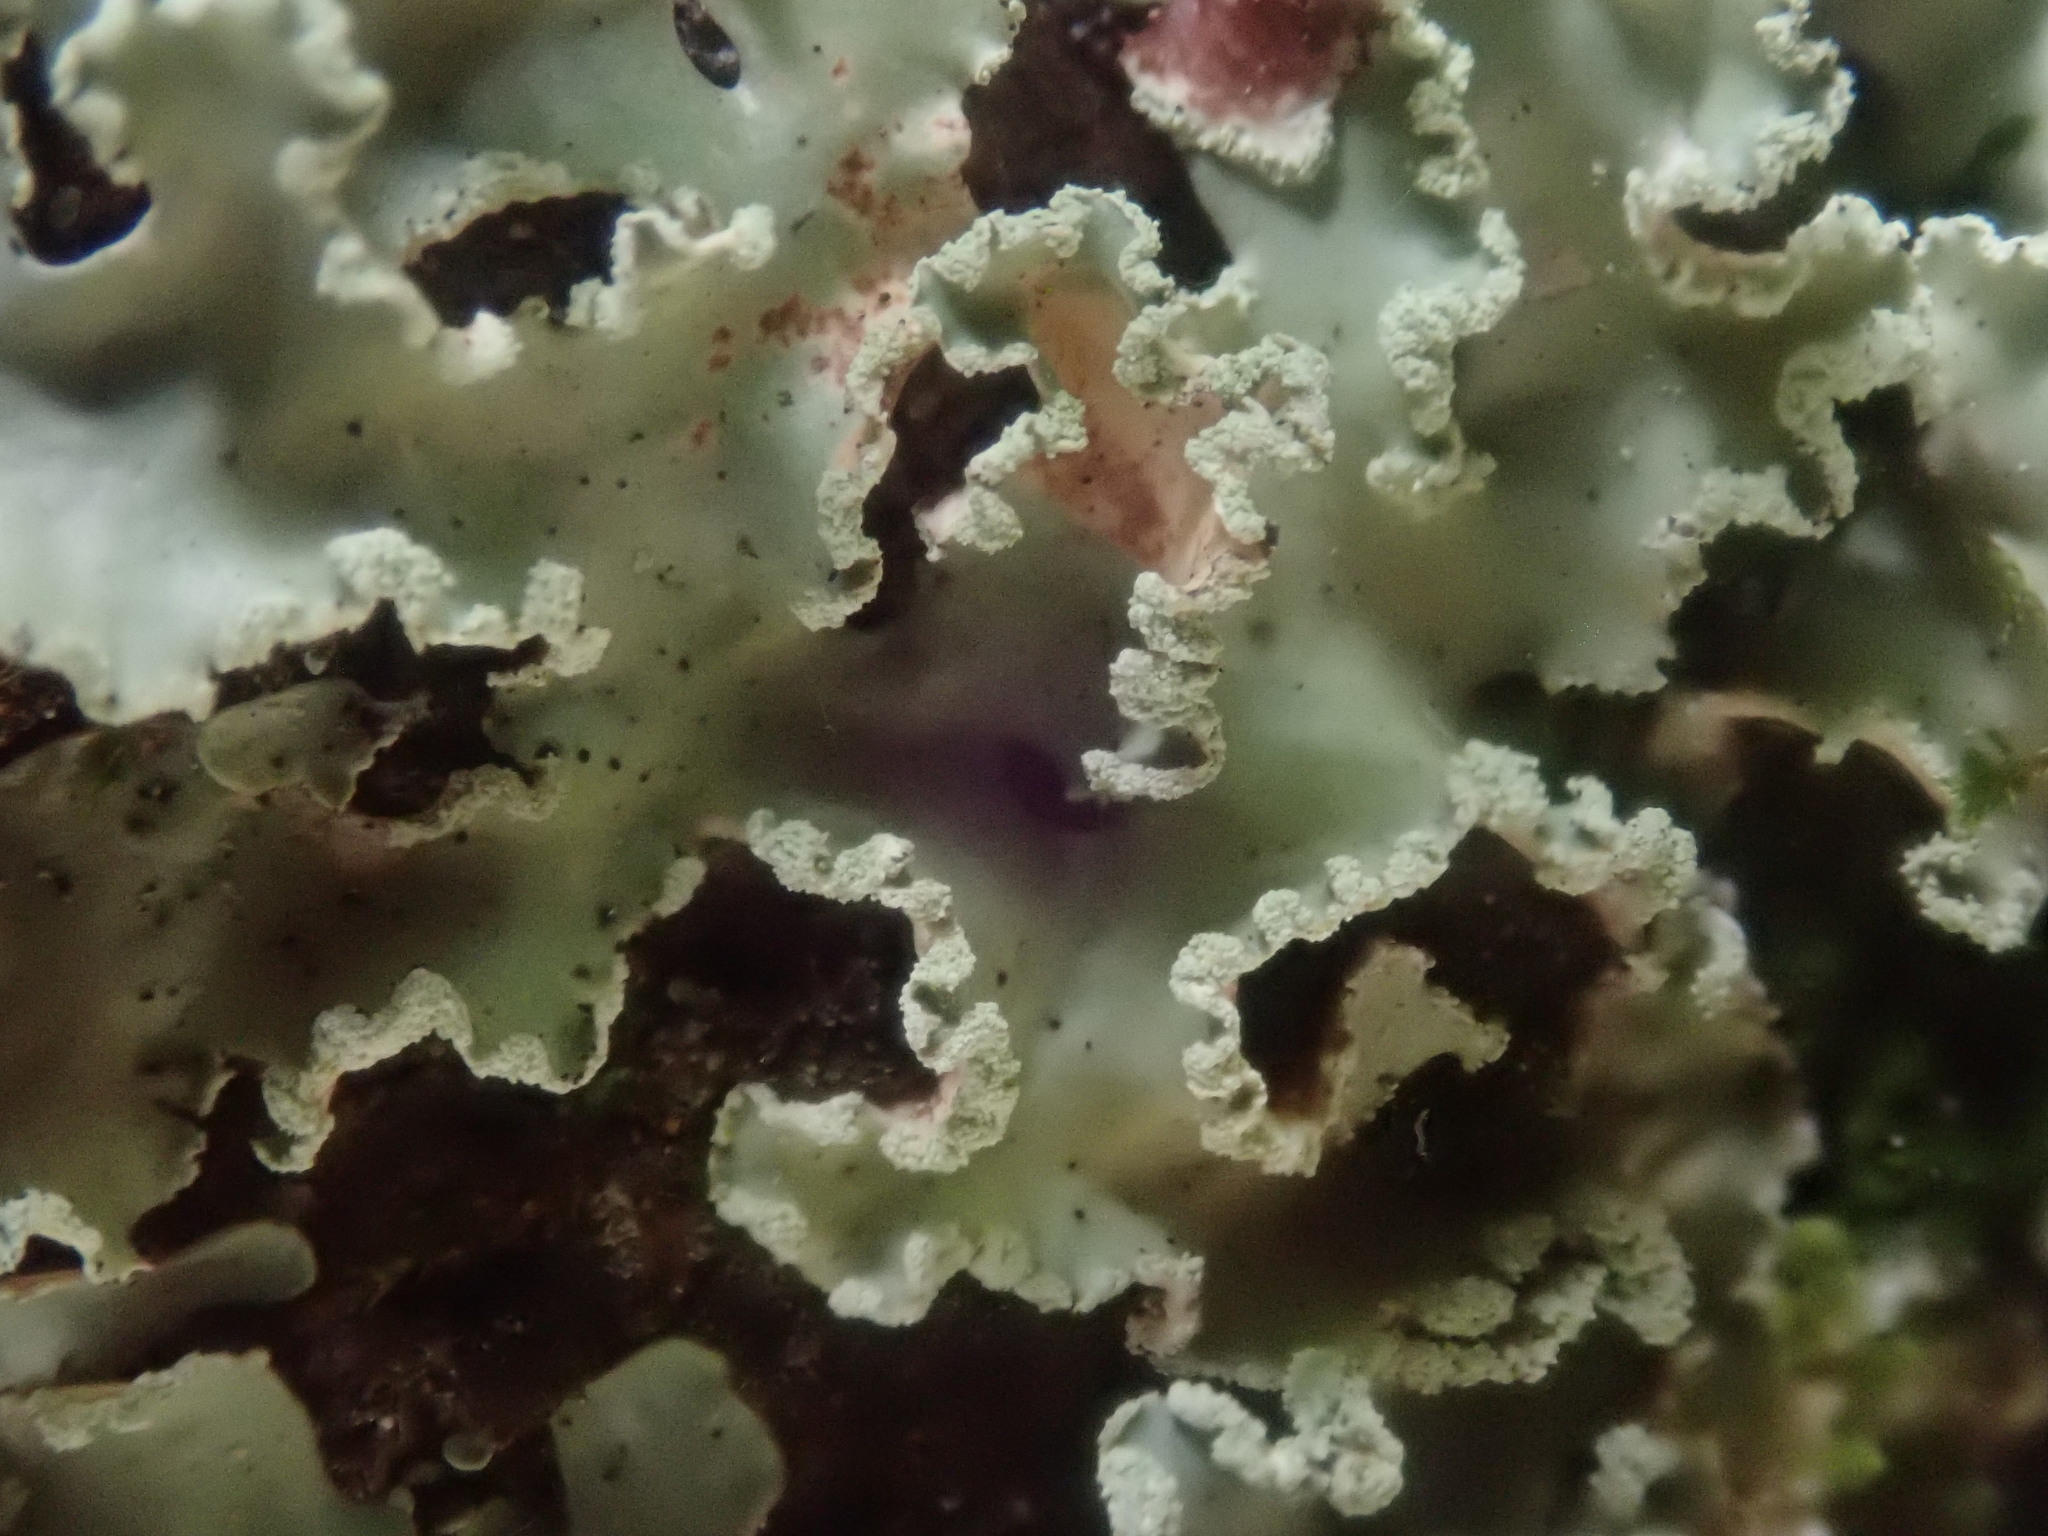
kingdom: Fungi
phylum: Ascomycota
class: Lecanoromycetes
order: Lecanorales
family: Parmeliaceae
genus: Usnocetraria
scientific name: Usnocetraria oakesiana
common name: Yellow ribbon lichen
